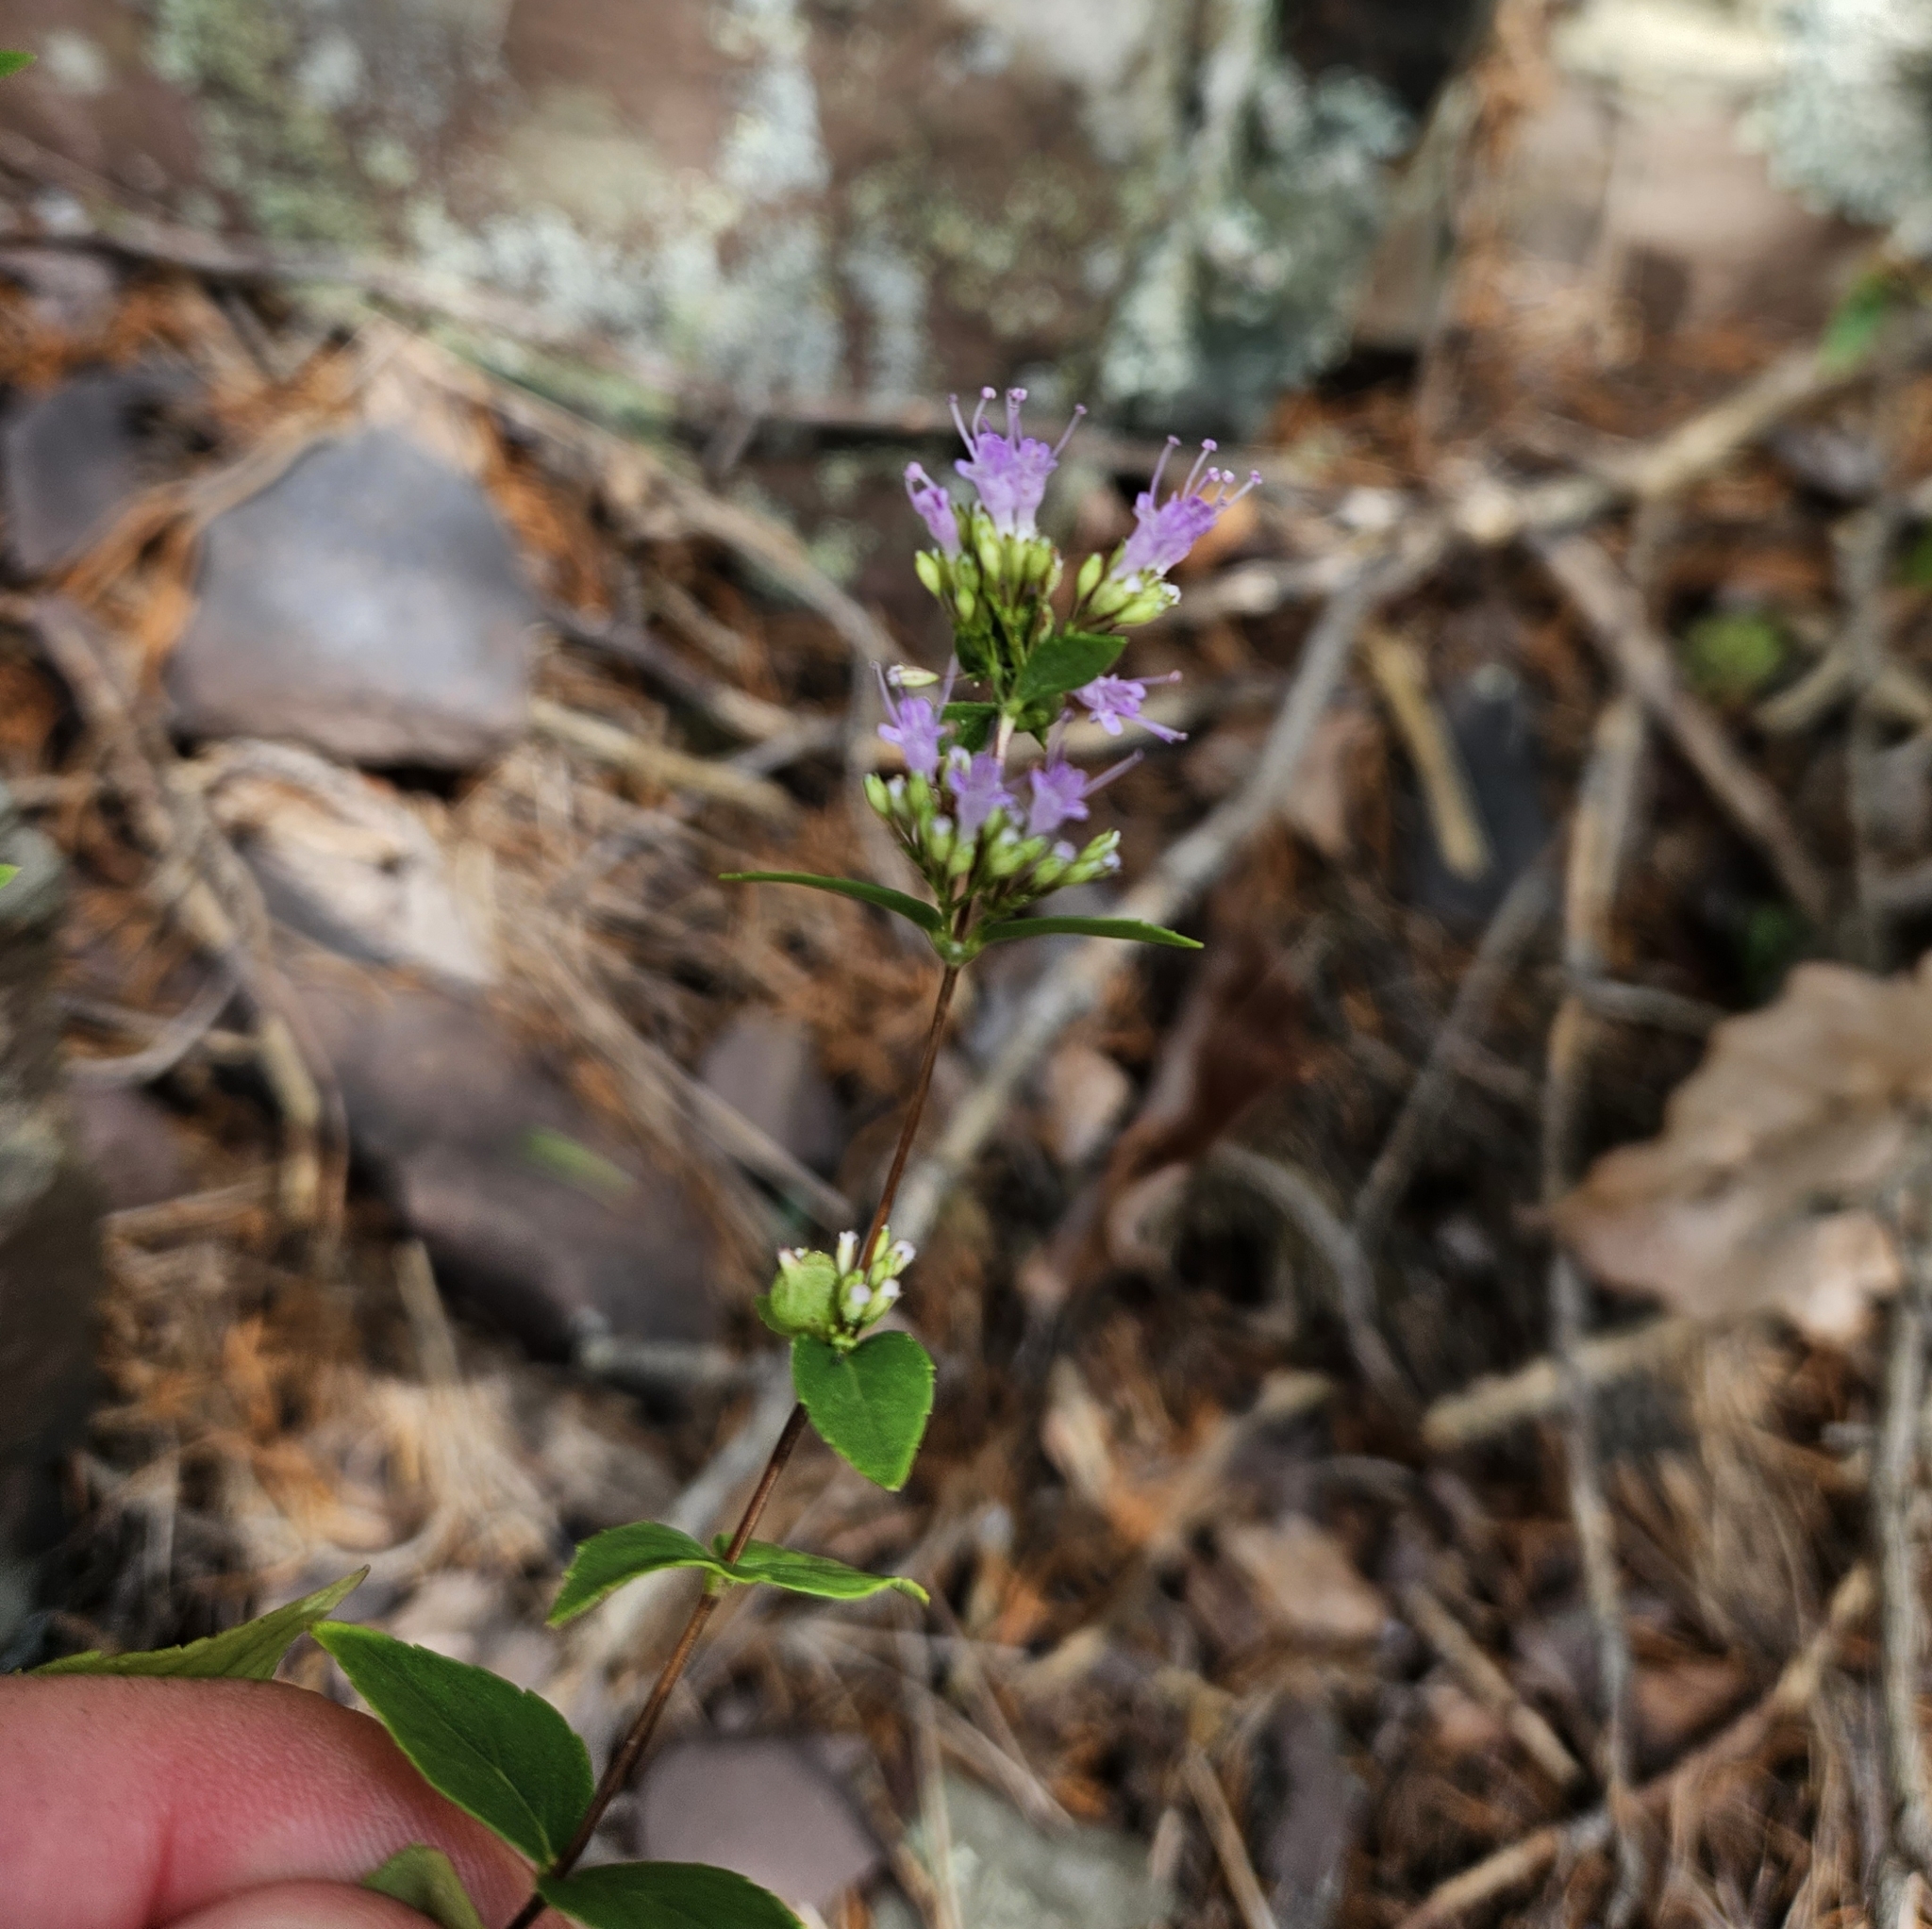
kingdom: Plantae
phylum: Tracheophyta
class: Magnoliopsida
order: Lamiales
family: Lamiaceae
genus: Cunila
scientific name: Cunila origanoides
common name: American dittany
